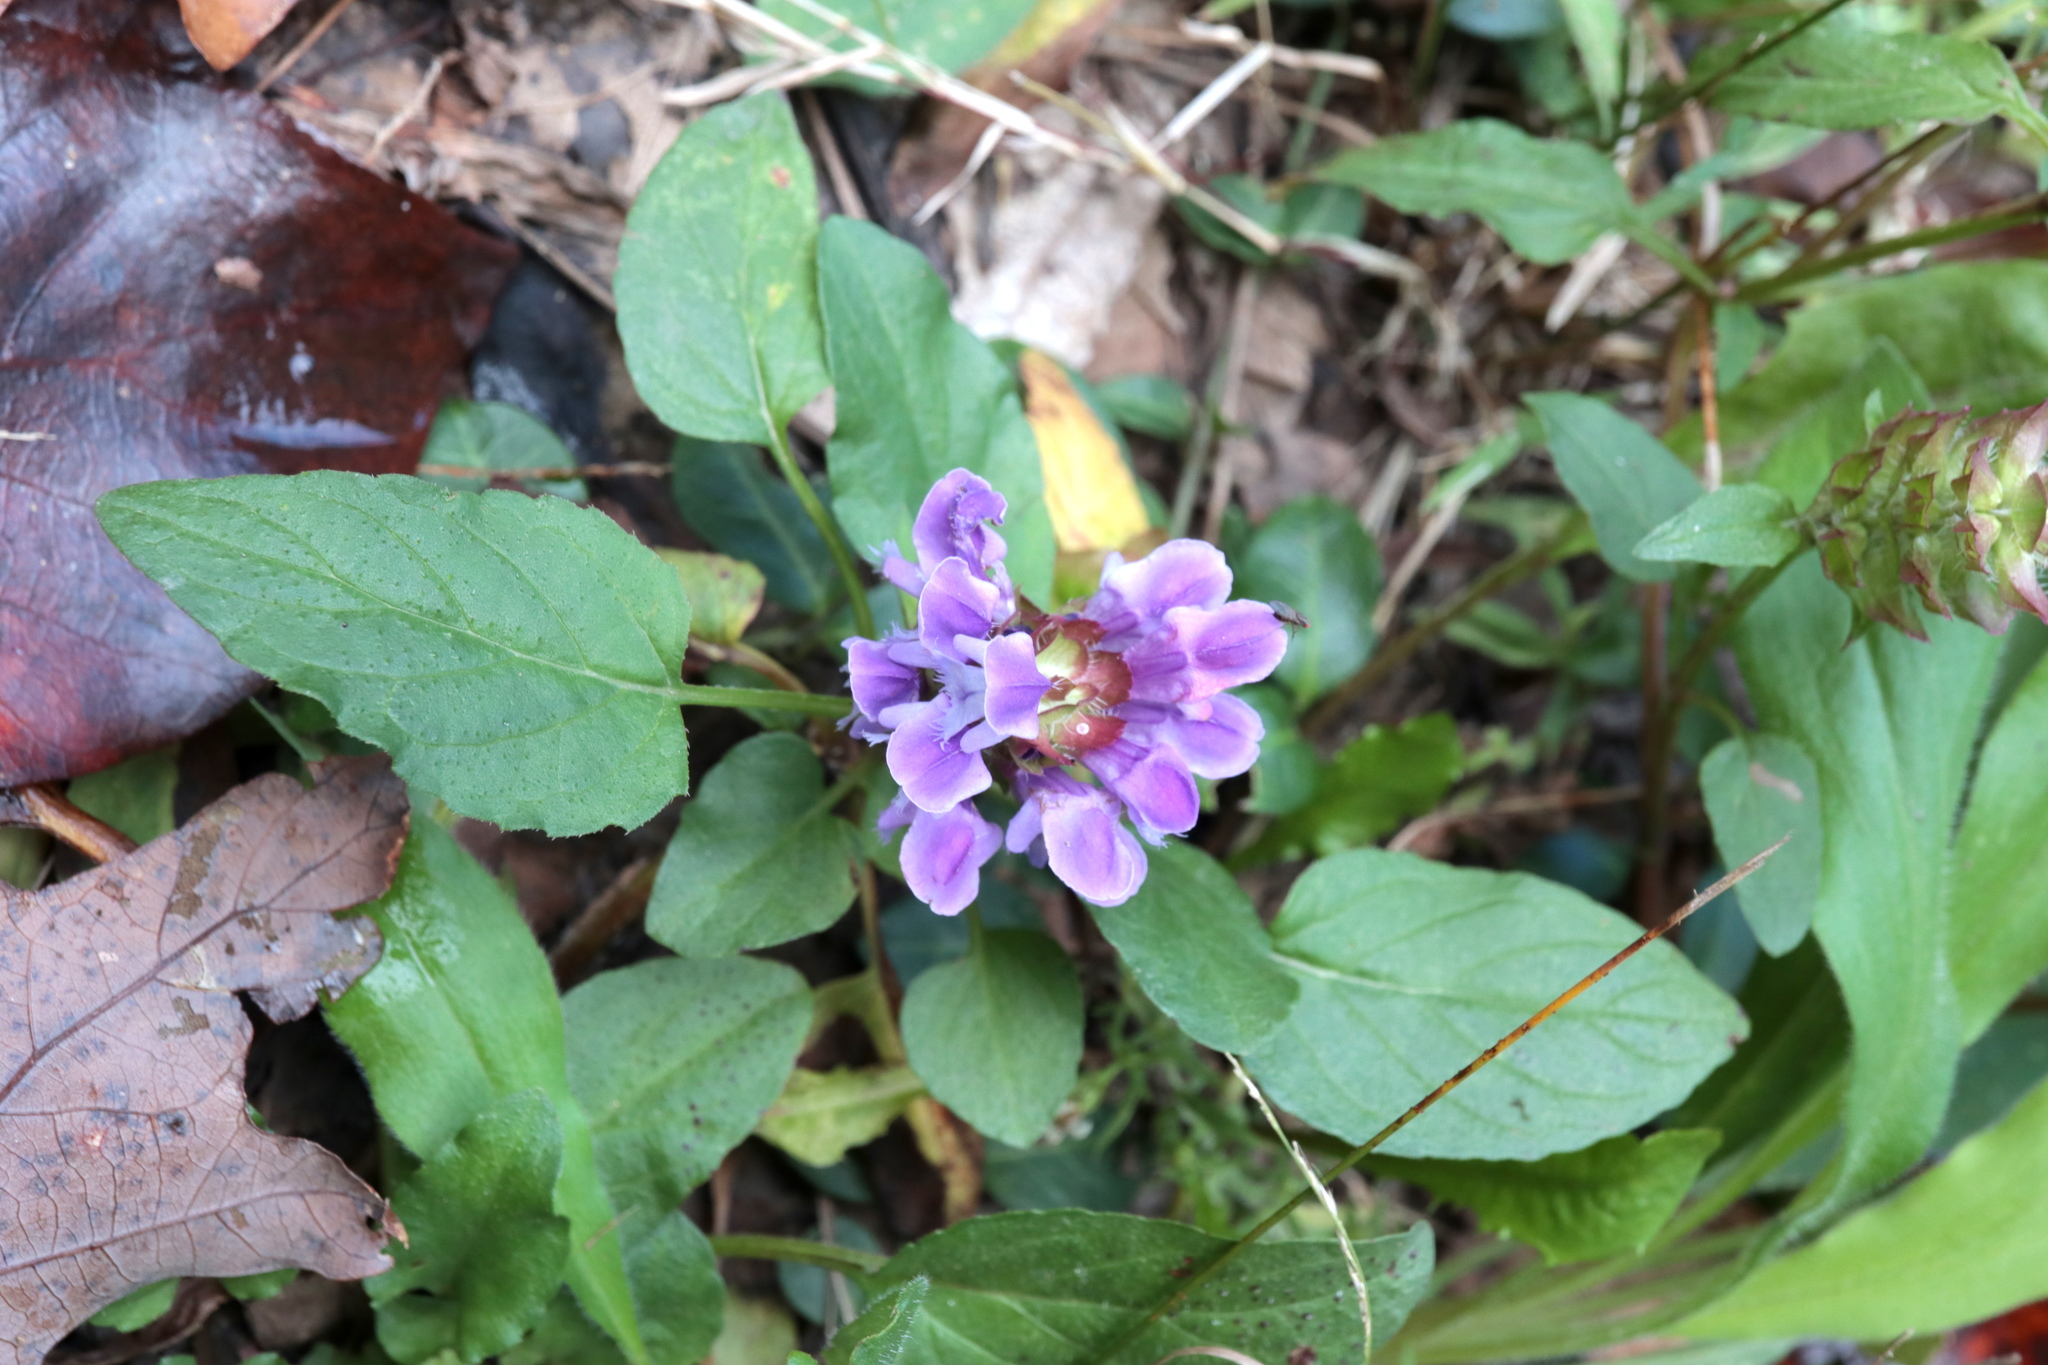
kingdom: Plantae
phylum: Tracheophyta
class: Magnoliopsida
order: Lamiales
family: Lamiaceae
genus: Prunella
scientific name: Prunella vulgaris
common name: Heal-all
